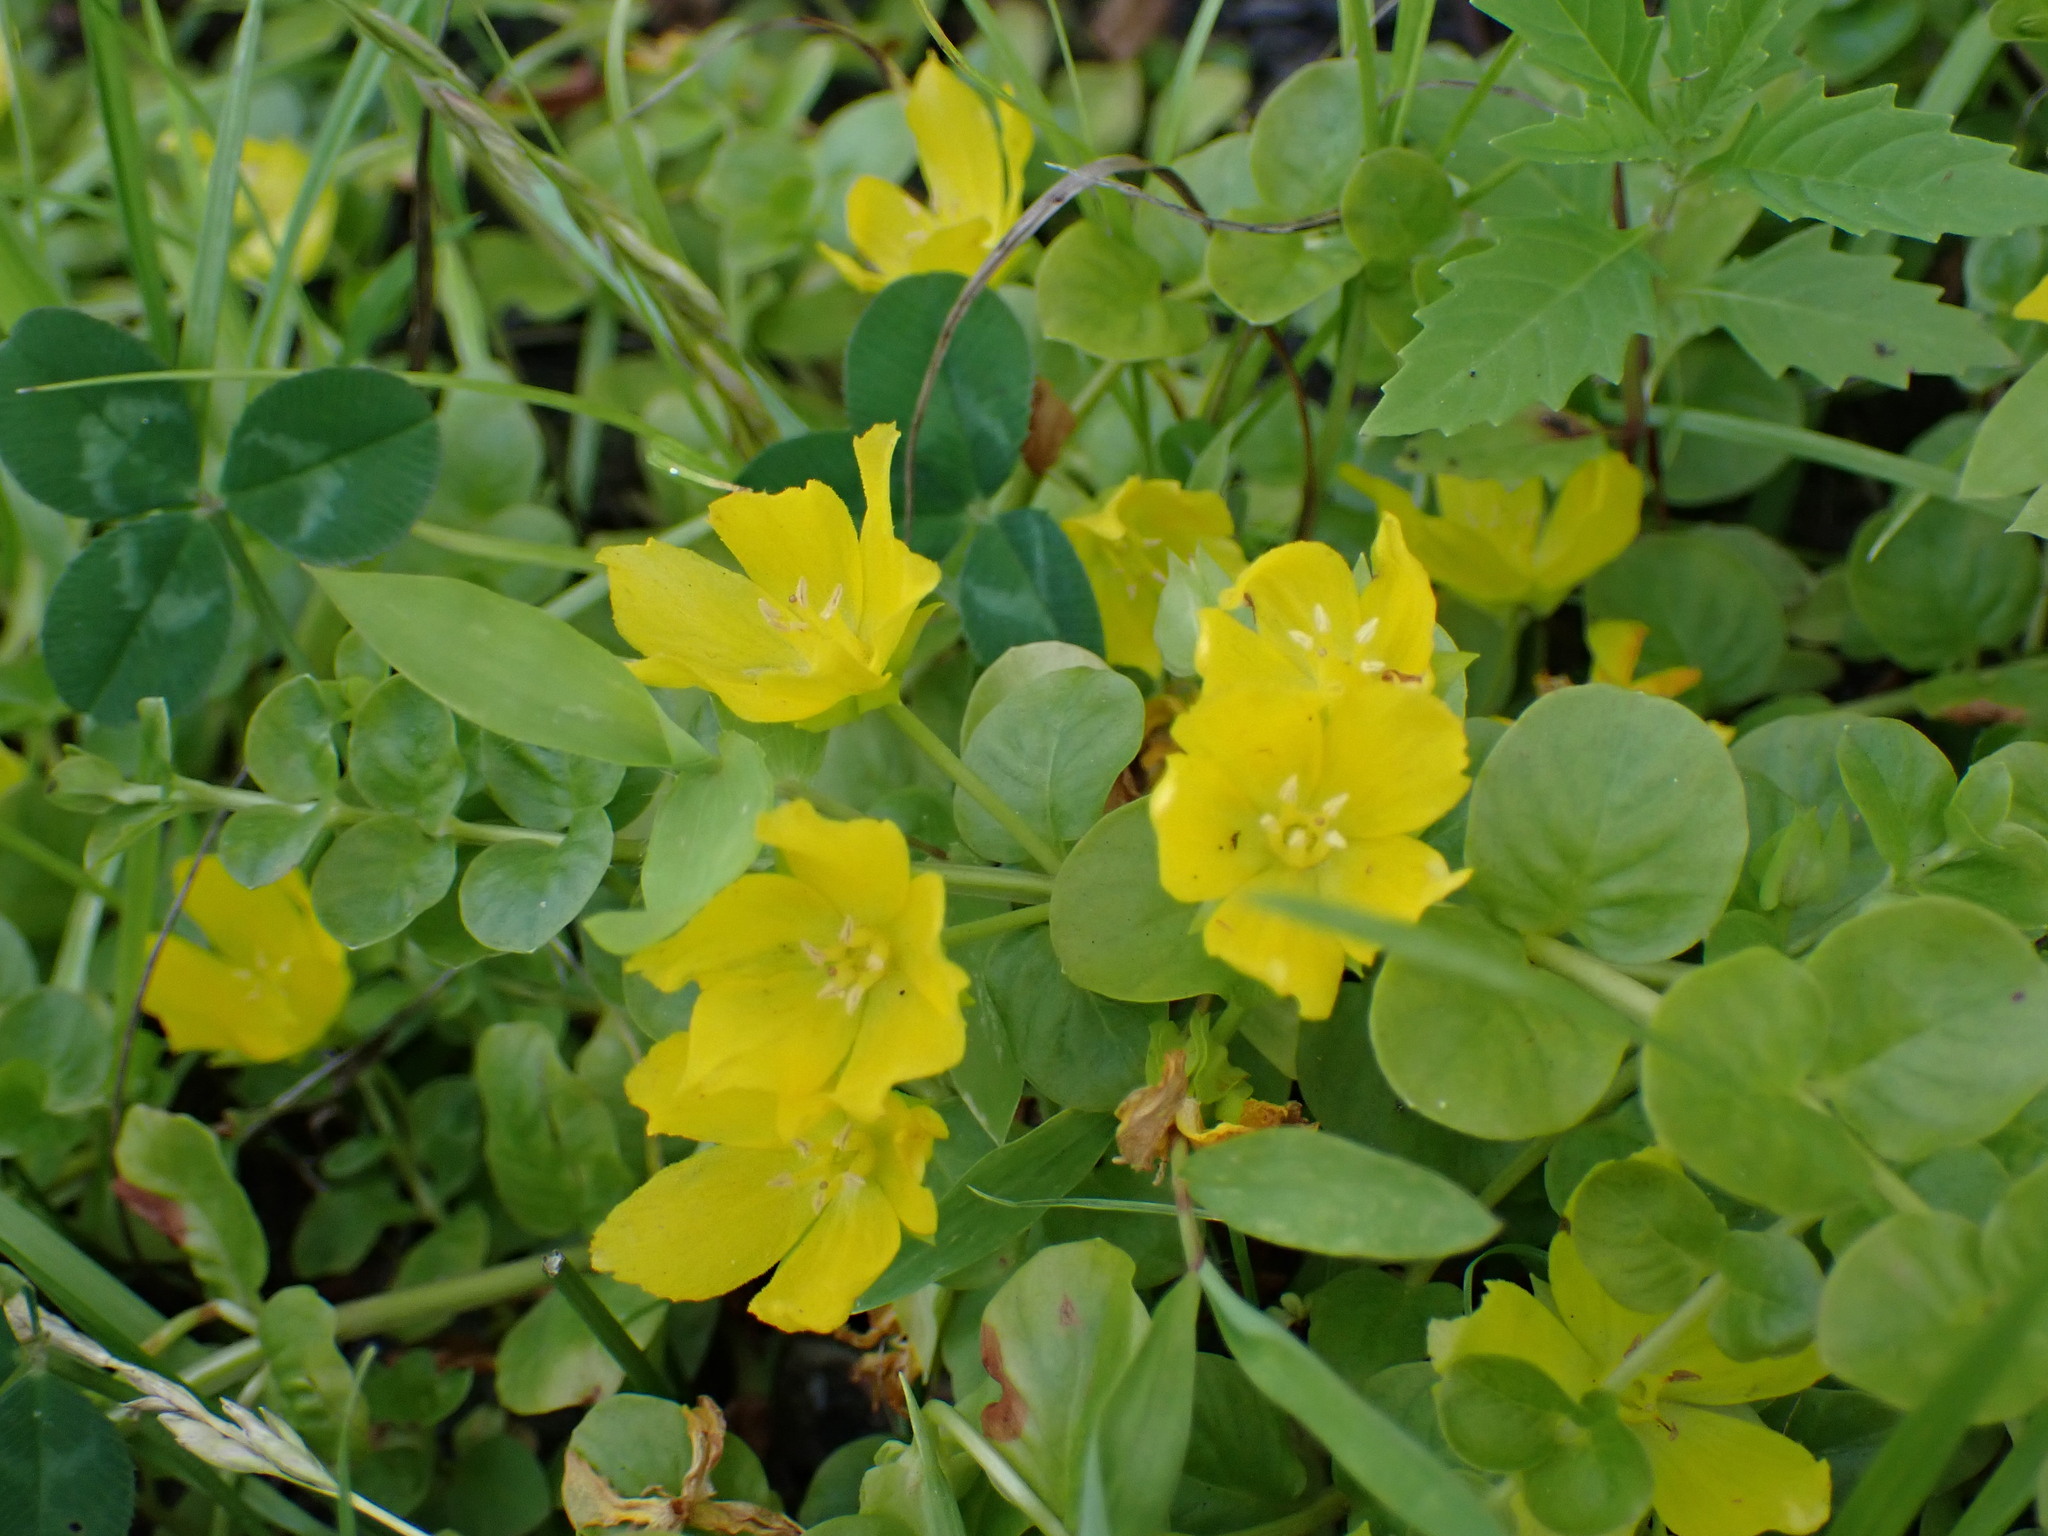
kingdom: Plantae
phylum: Tracheophyta
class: Magnoliopsida
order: Ericales
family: Primulaceae
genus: Lysimachia
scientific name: Lysimachia nummularia
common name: Moneywort
